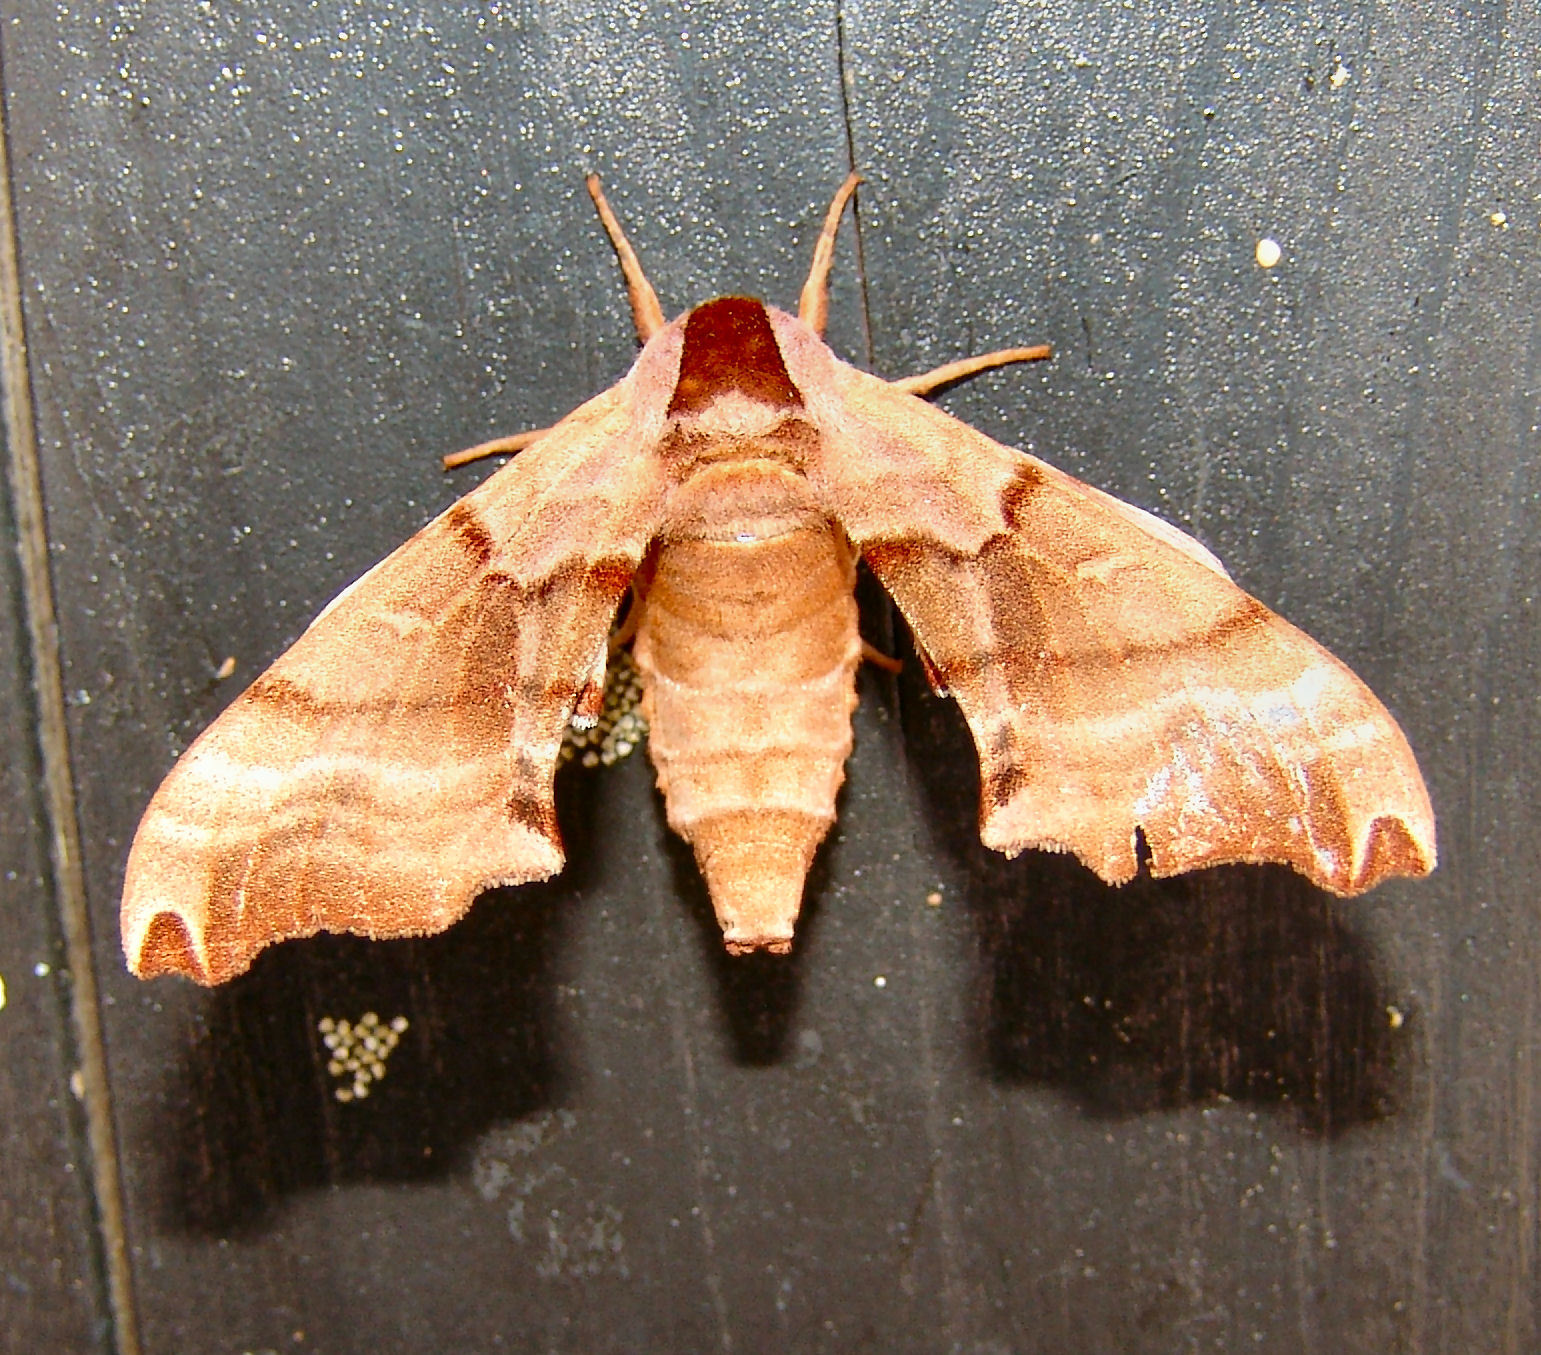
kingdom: Animalia
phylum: Arthropoda
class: Insecta
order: Lepidoptera
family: Sphingidae
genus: Smerinthus
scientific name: Smerinthus jamaicensis
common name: Twin spotted sphinx
